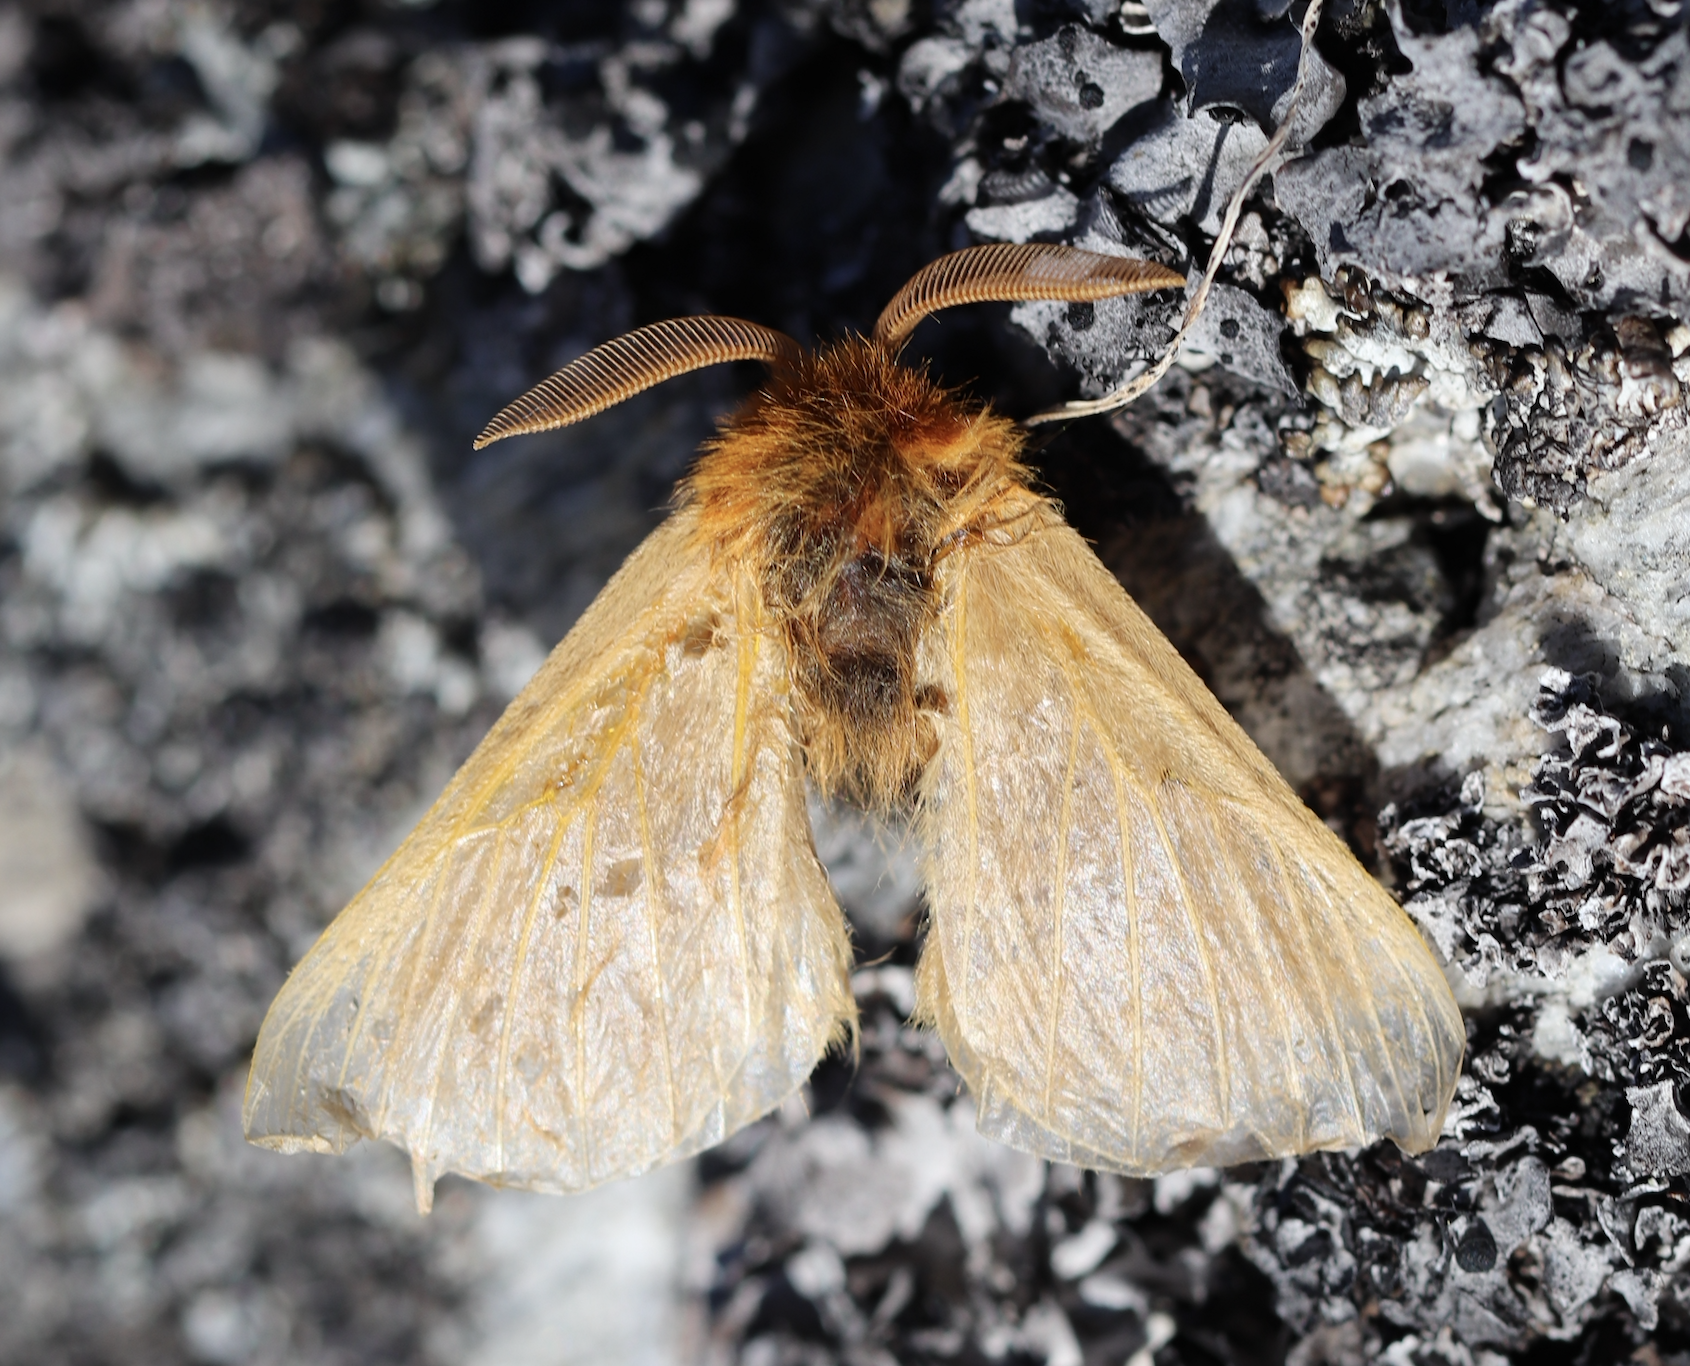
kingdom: Animalia
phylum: Arthropoda
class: Insecta
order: Lepidoptera
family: Brahmaeidae
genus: Lemonia
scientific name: Lemonia taraxaci
